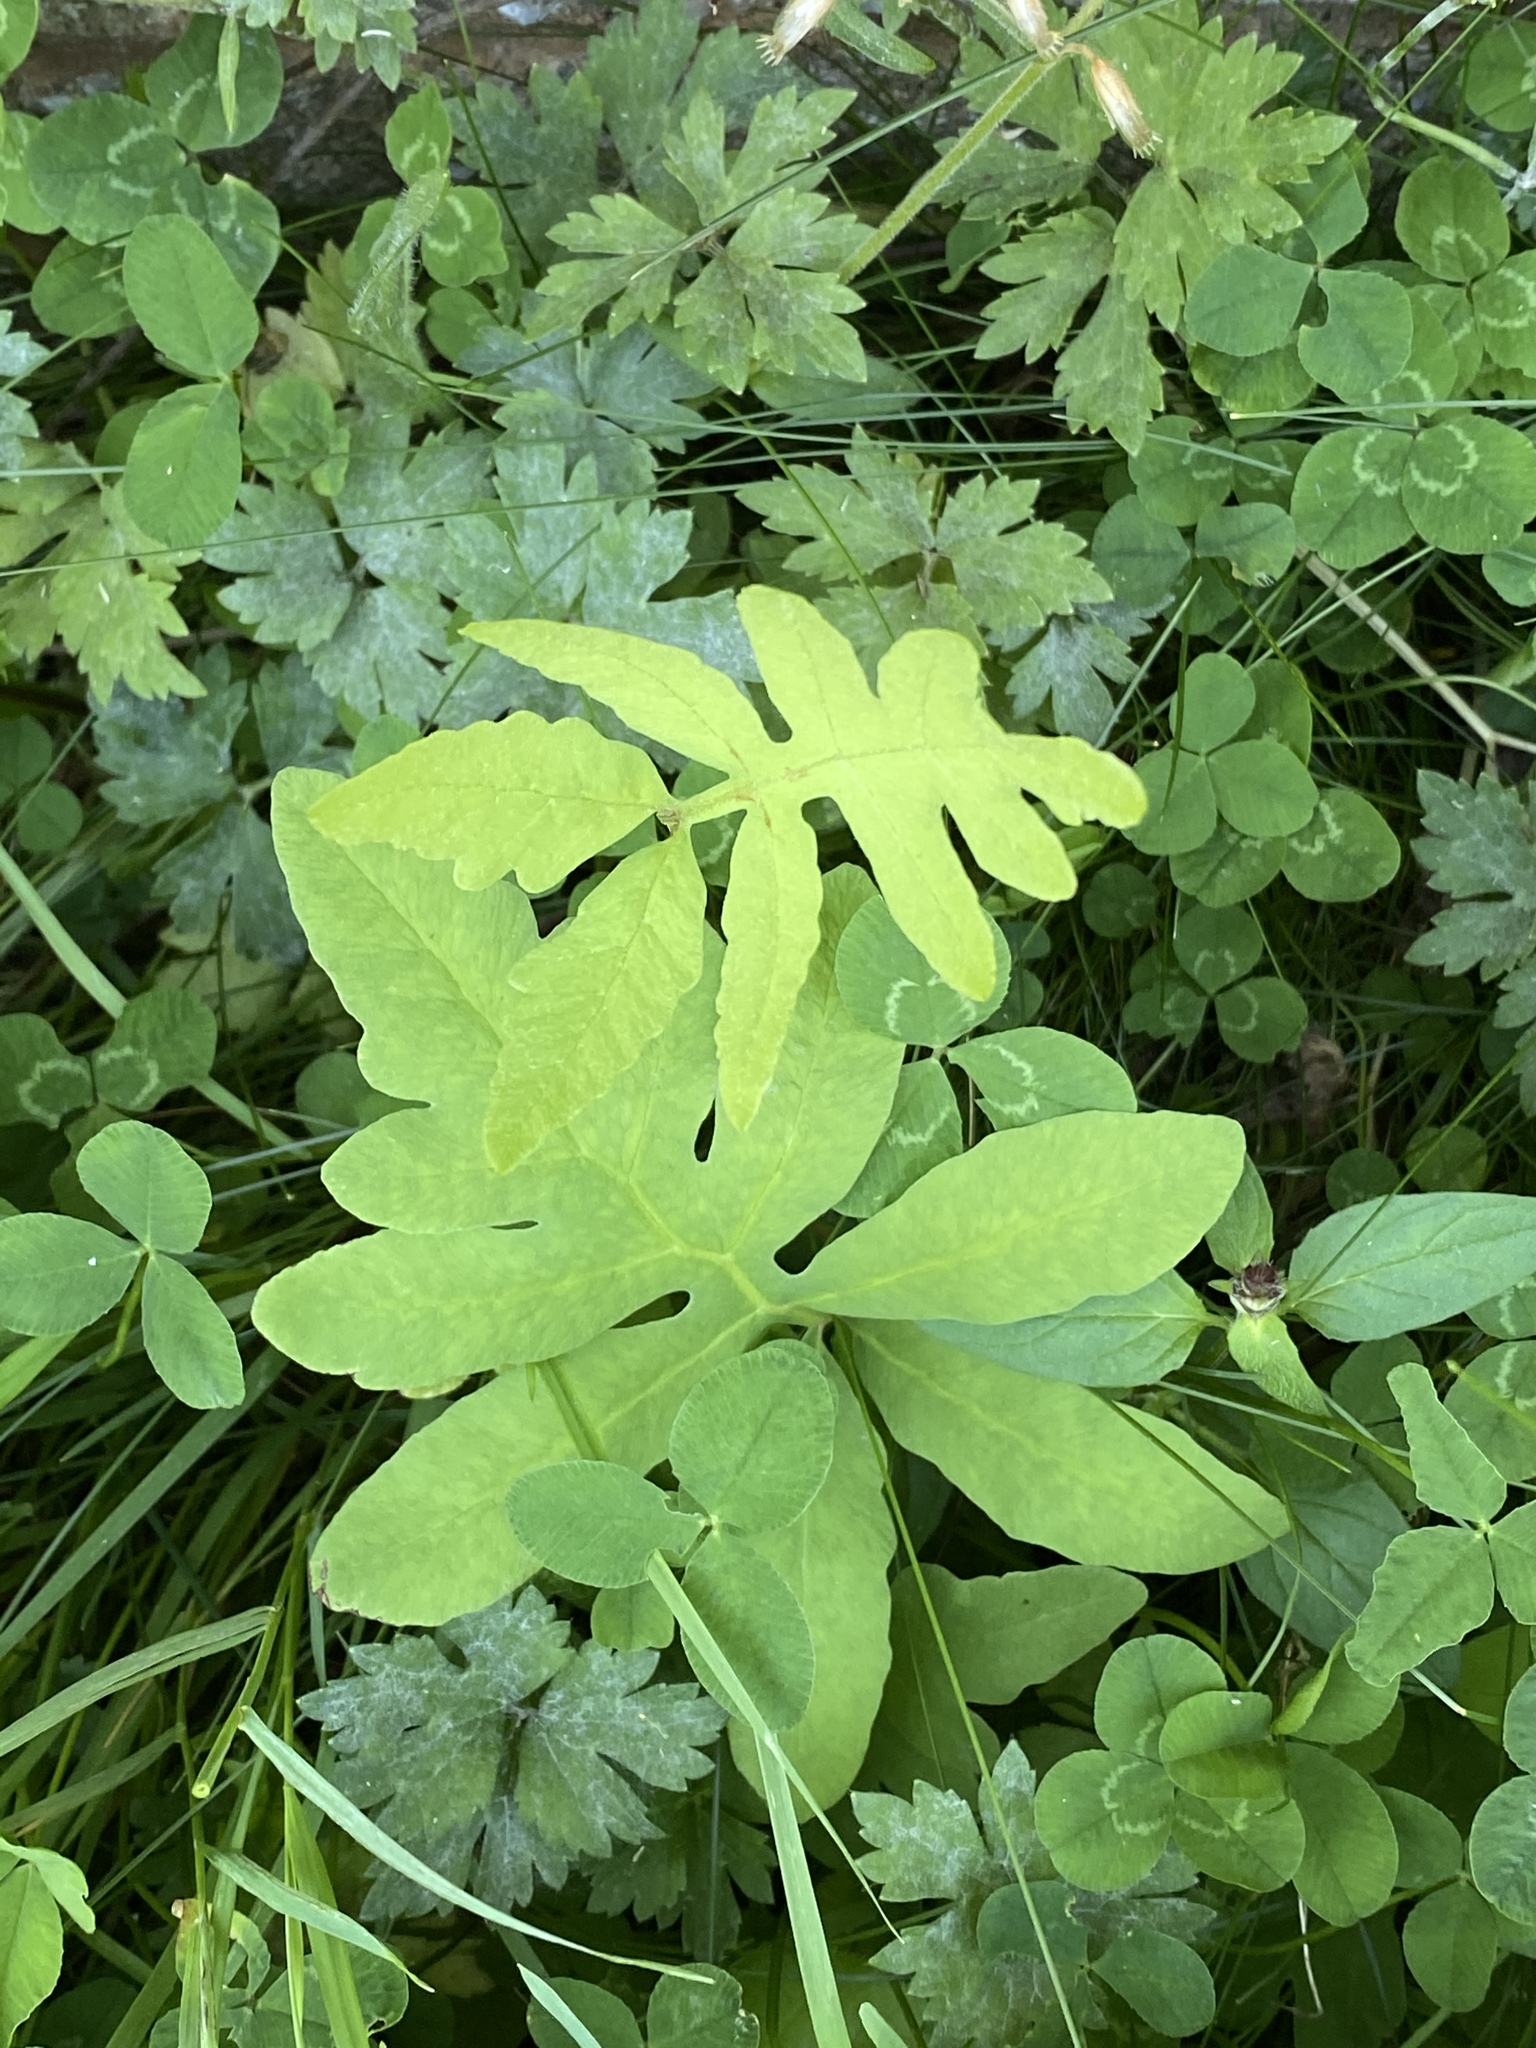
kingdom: Plantae
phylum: Tracheophyta
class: Polypodiopsida
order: Polypodiales
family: Onocleaceae
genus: Onoclea
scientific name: Onoclea sensibilis
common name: Sensitive fern
